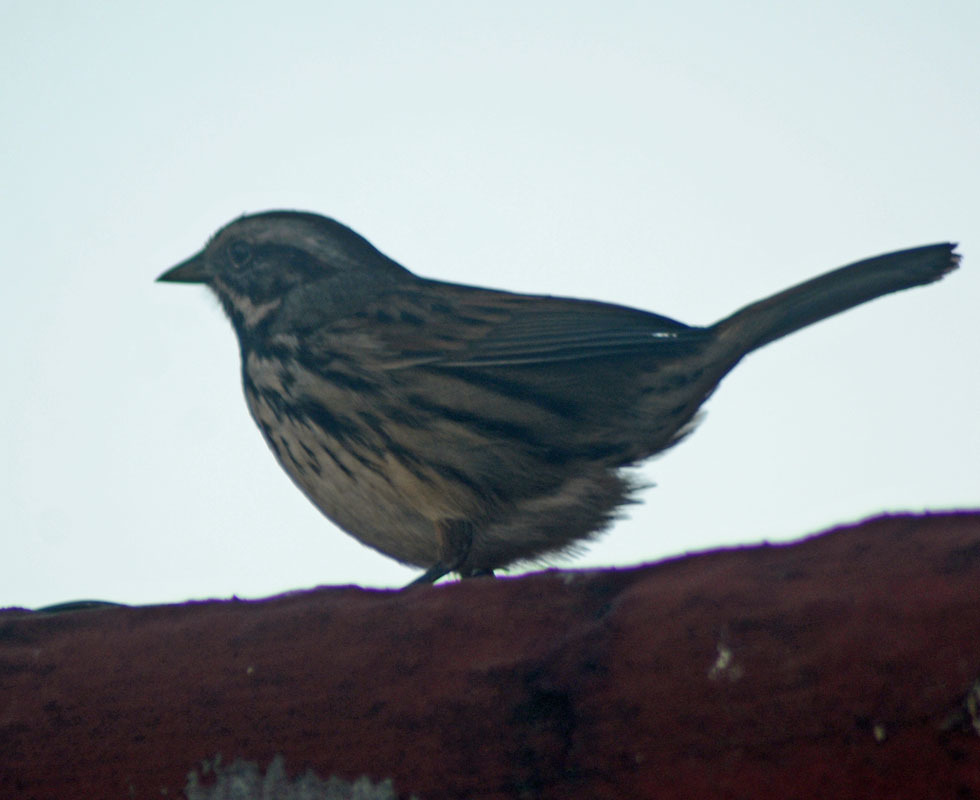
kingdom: Animalia
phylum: Chordata
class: Aves
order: Passeriformes
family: Passerellidae
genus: Melospiza
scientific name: Melospiza melodia
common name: Song sparrow
